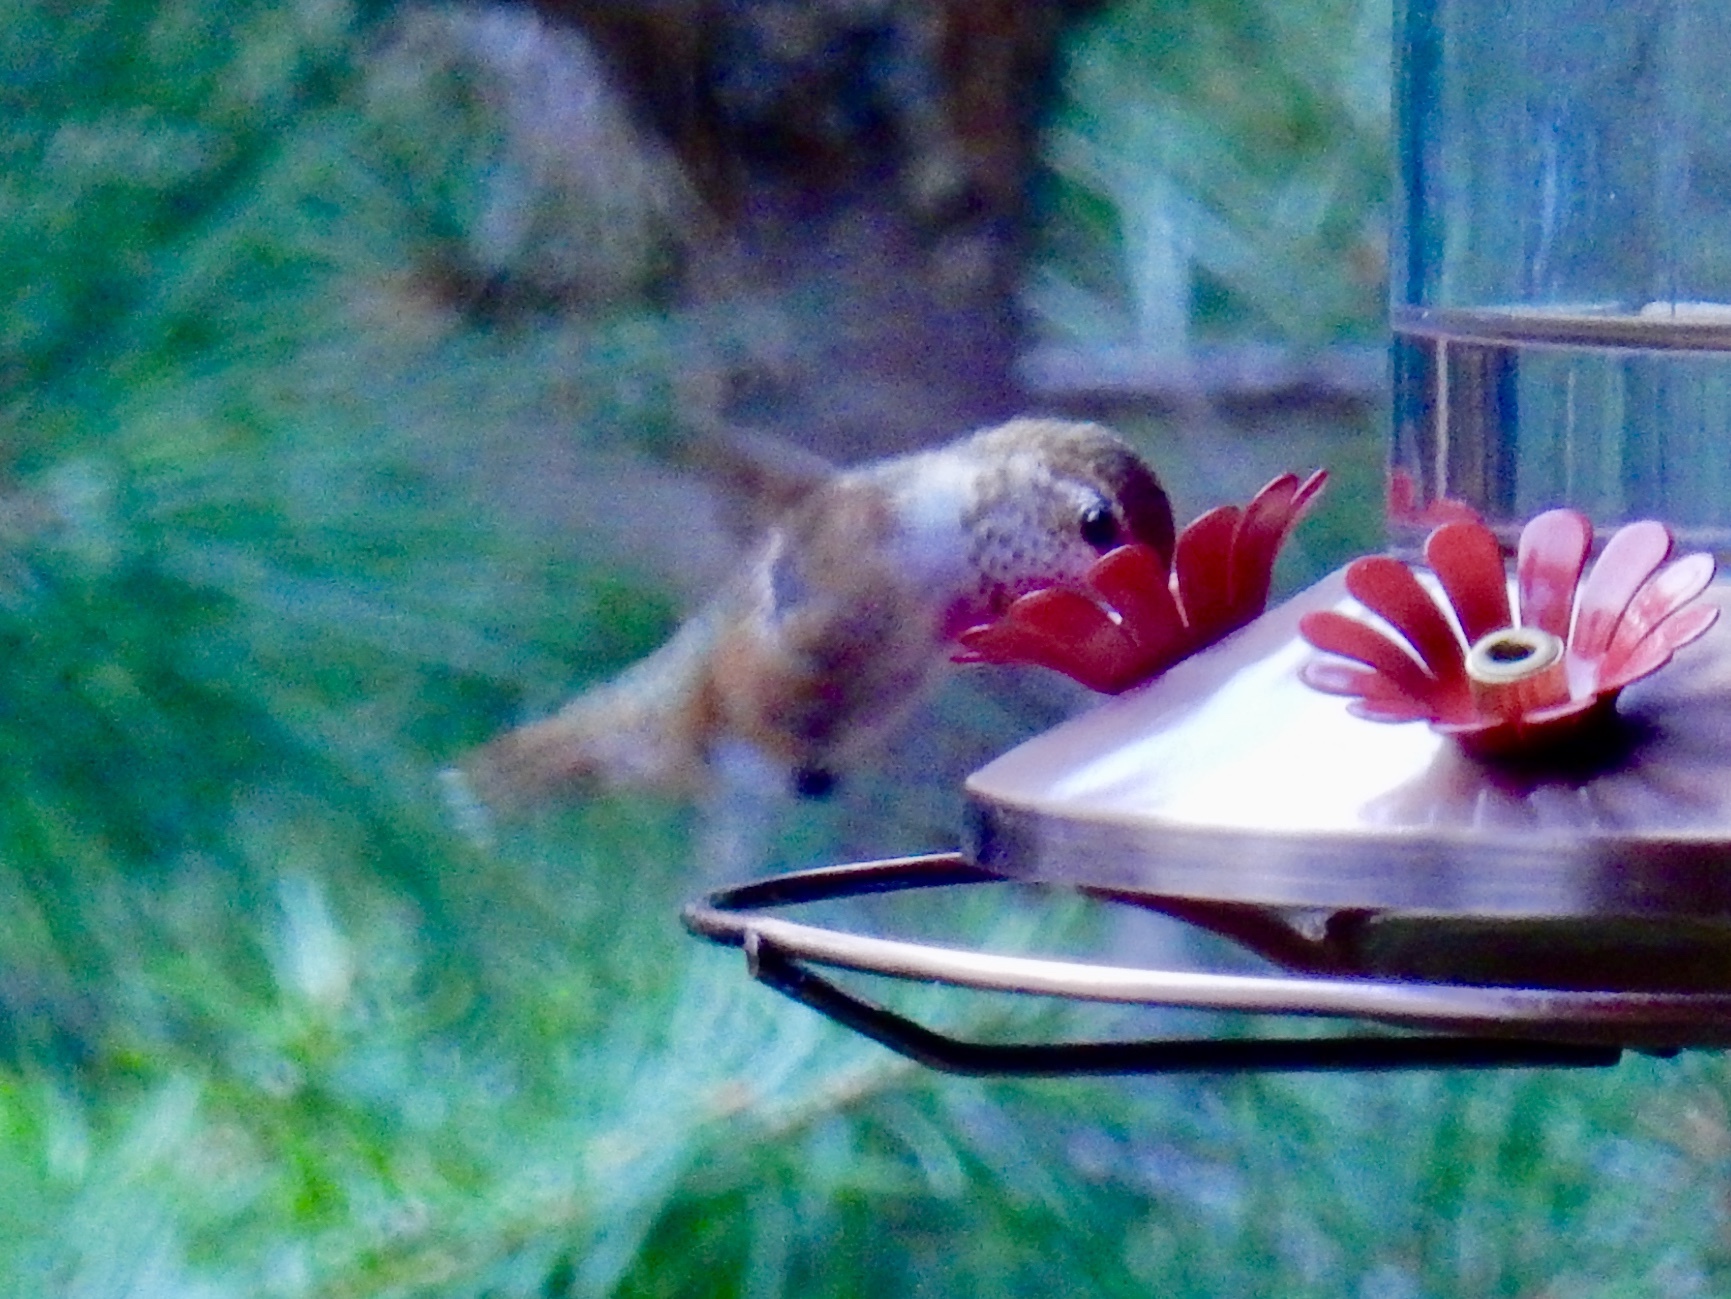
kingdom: Animalia
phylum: Chordata
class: Aves
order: Apodiformes
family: Trochilidae
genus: Selasphorus
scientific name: Selasphorus rufus
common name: Rufous hummingbird
